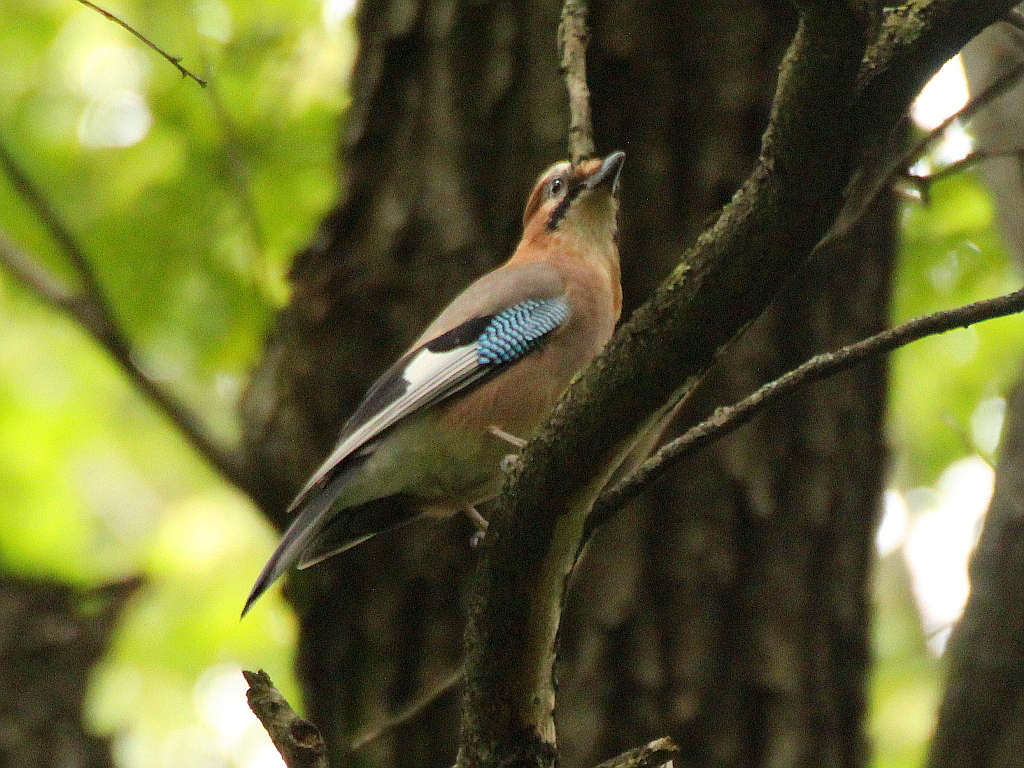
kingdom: Animalia
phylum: Chordata
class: Aves
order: Passeriformes
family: Corvidae
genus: Garrulus
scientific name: Garrulus glandarius
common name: Eurasian jay
